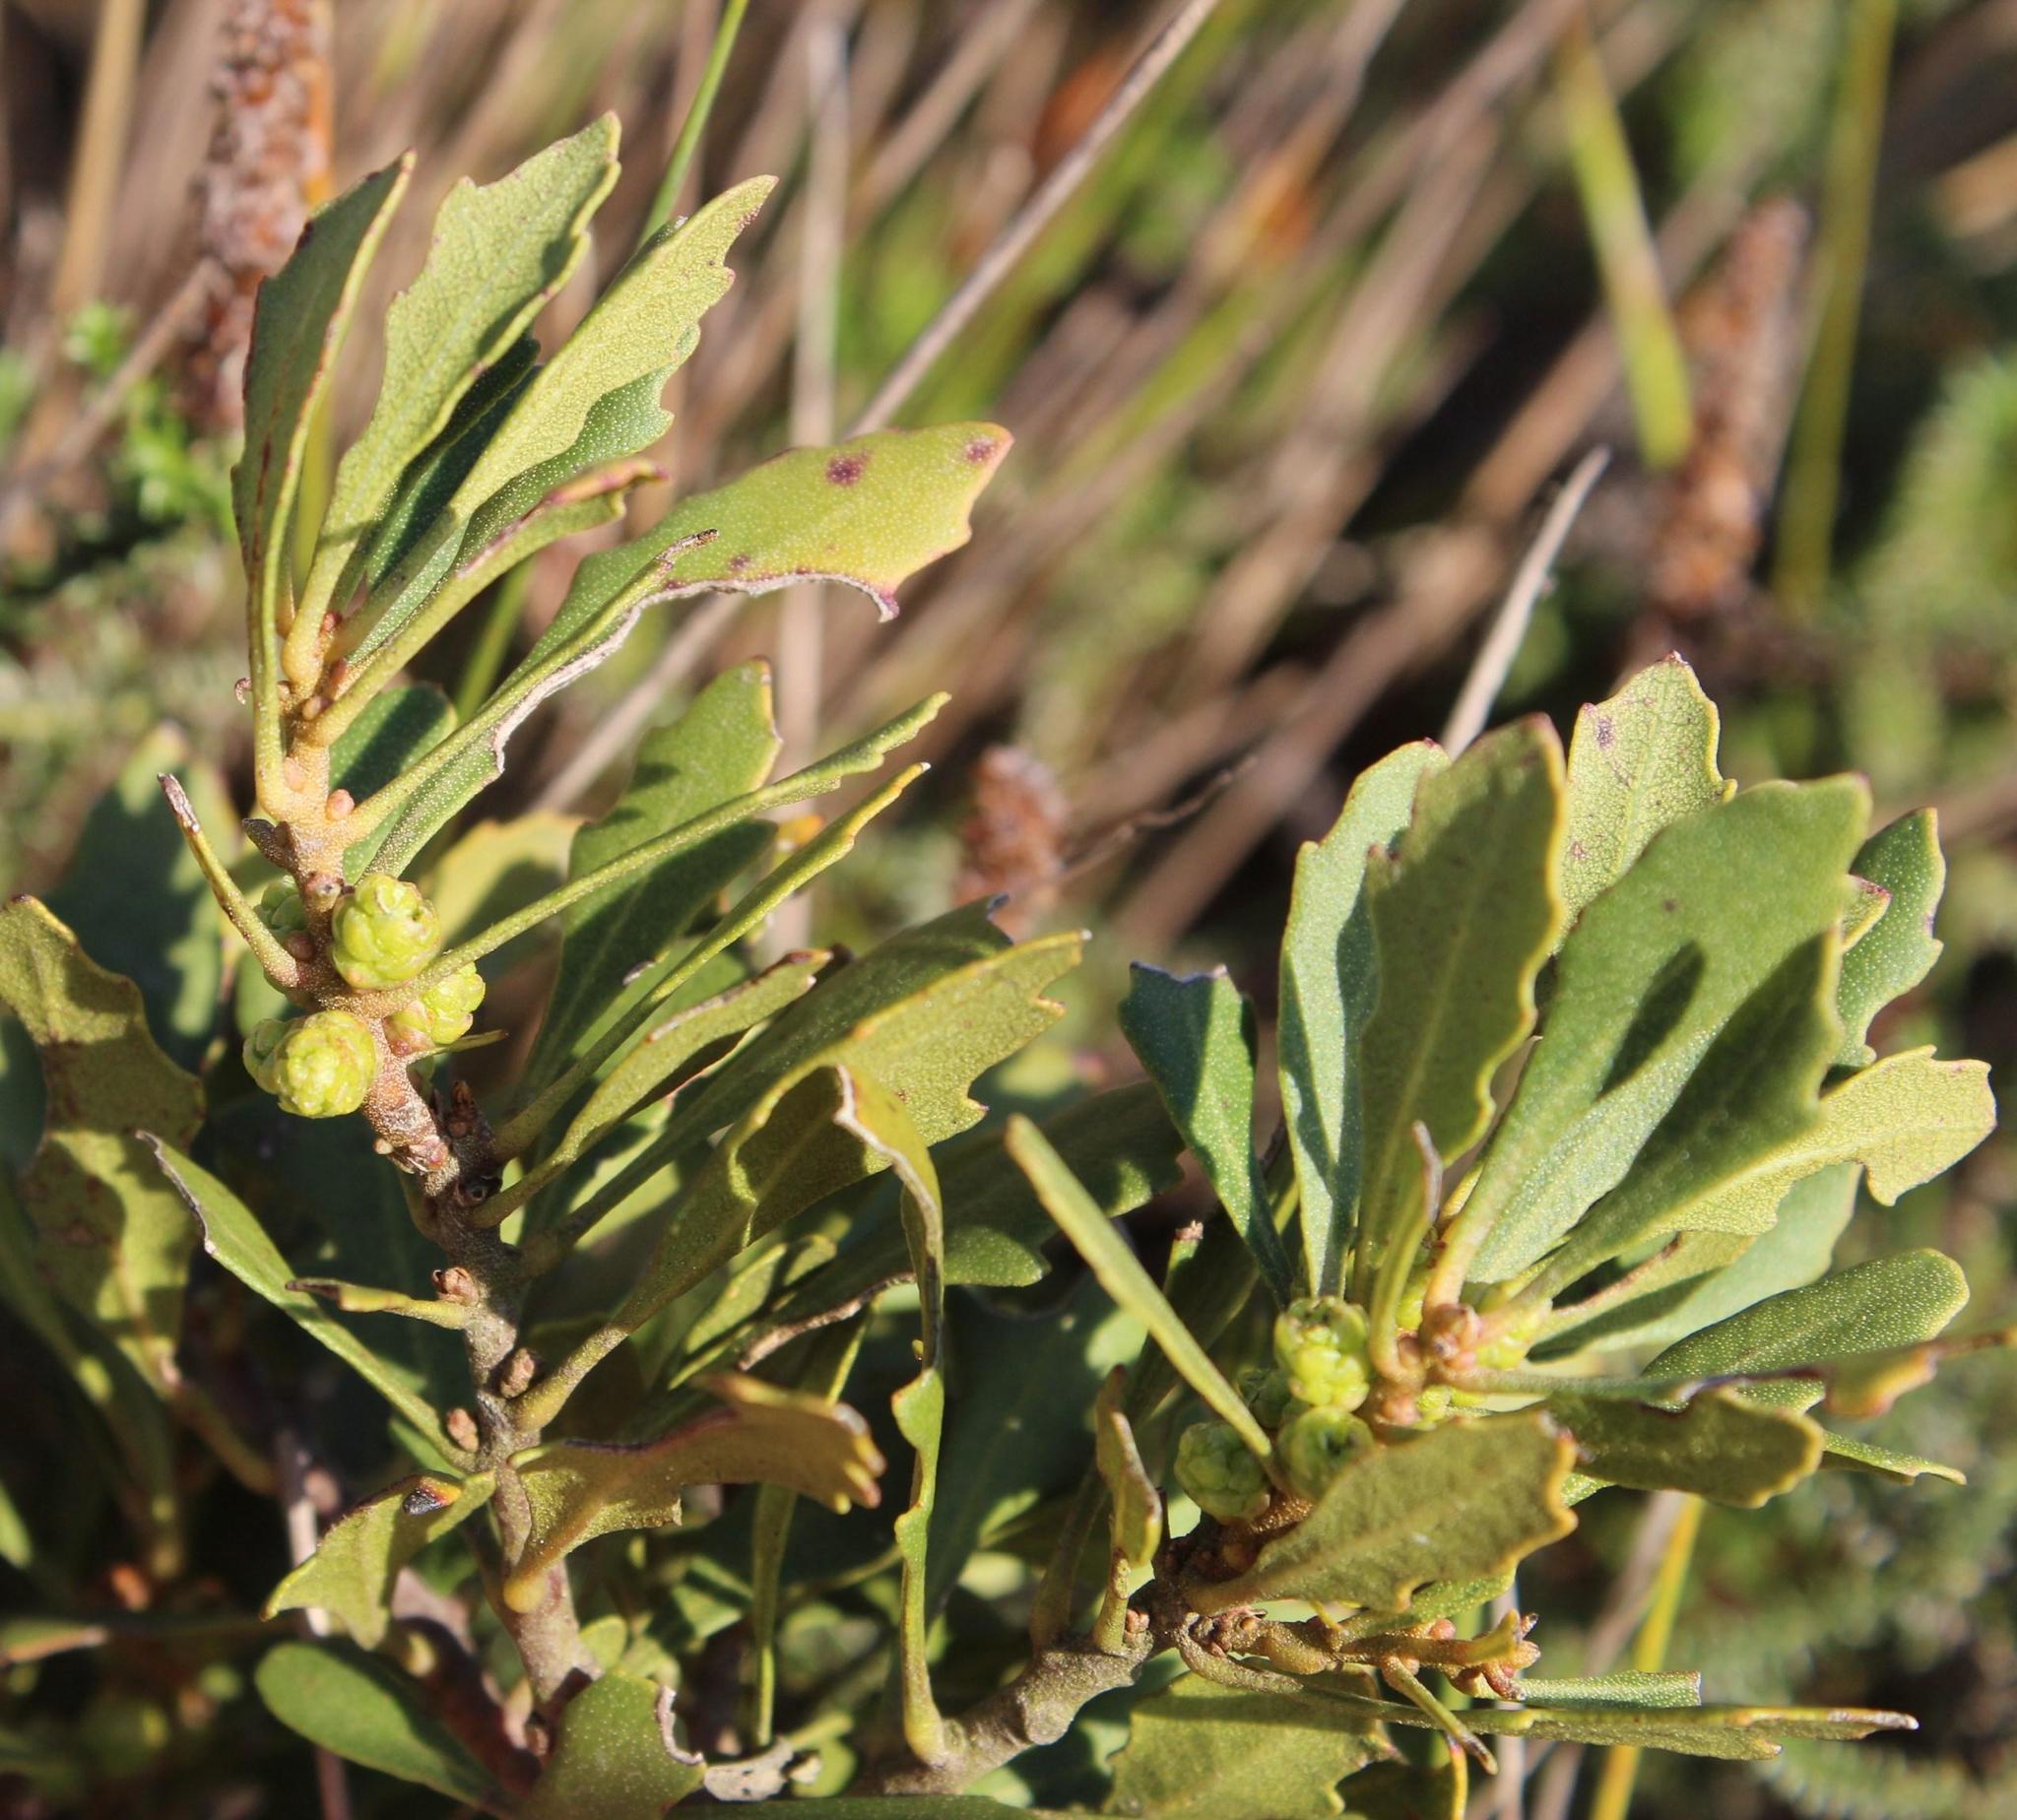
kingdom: Plantae
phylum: Tracheophyta
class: Magnoliopsida
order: Fagales
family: Myricaceae
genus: Morella
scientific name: Morella quercifolia
